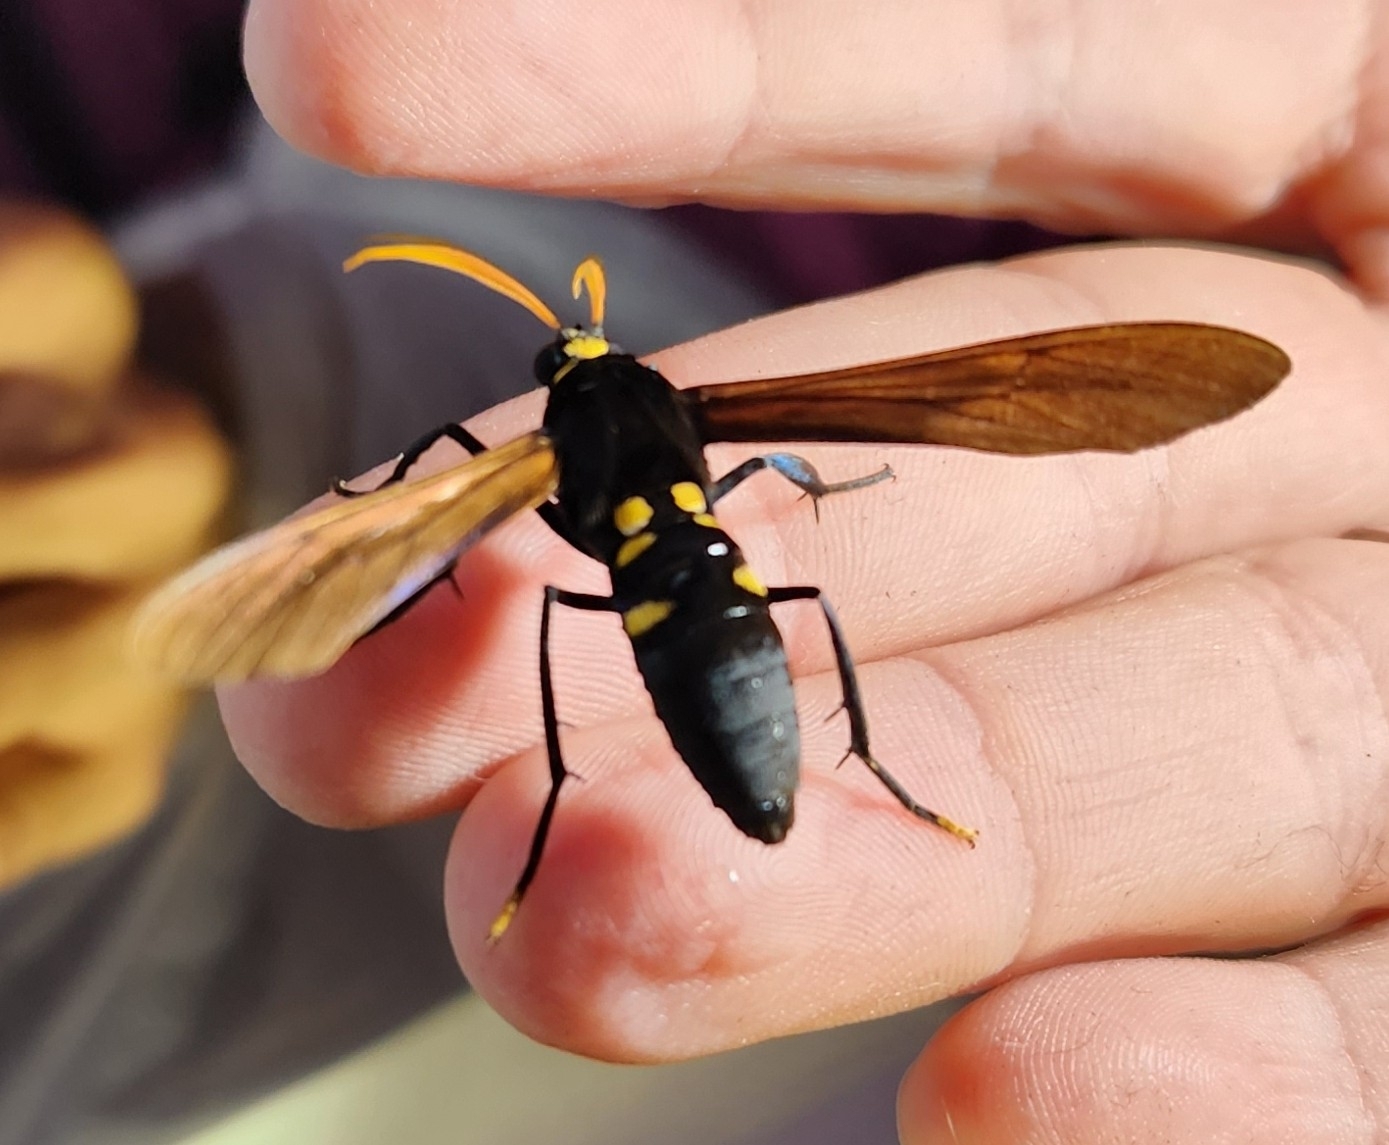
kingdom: Animalia
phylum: Arthropoda
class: Insecta
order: Lepidoptera
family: Erebidae
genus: Orcynia
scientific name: Orcynia calcarata
